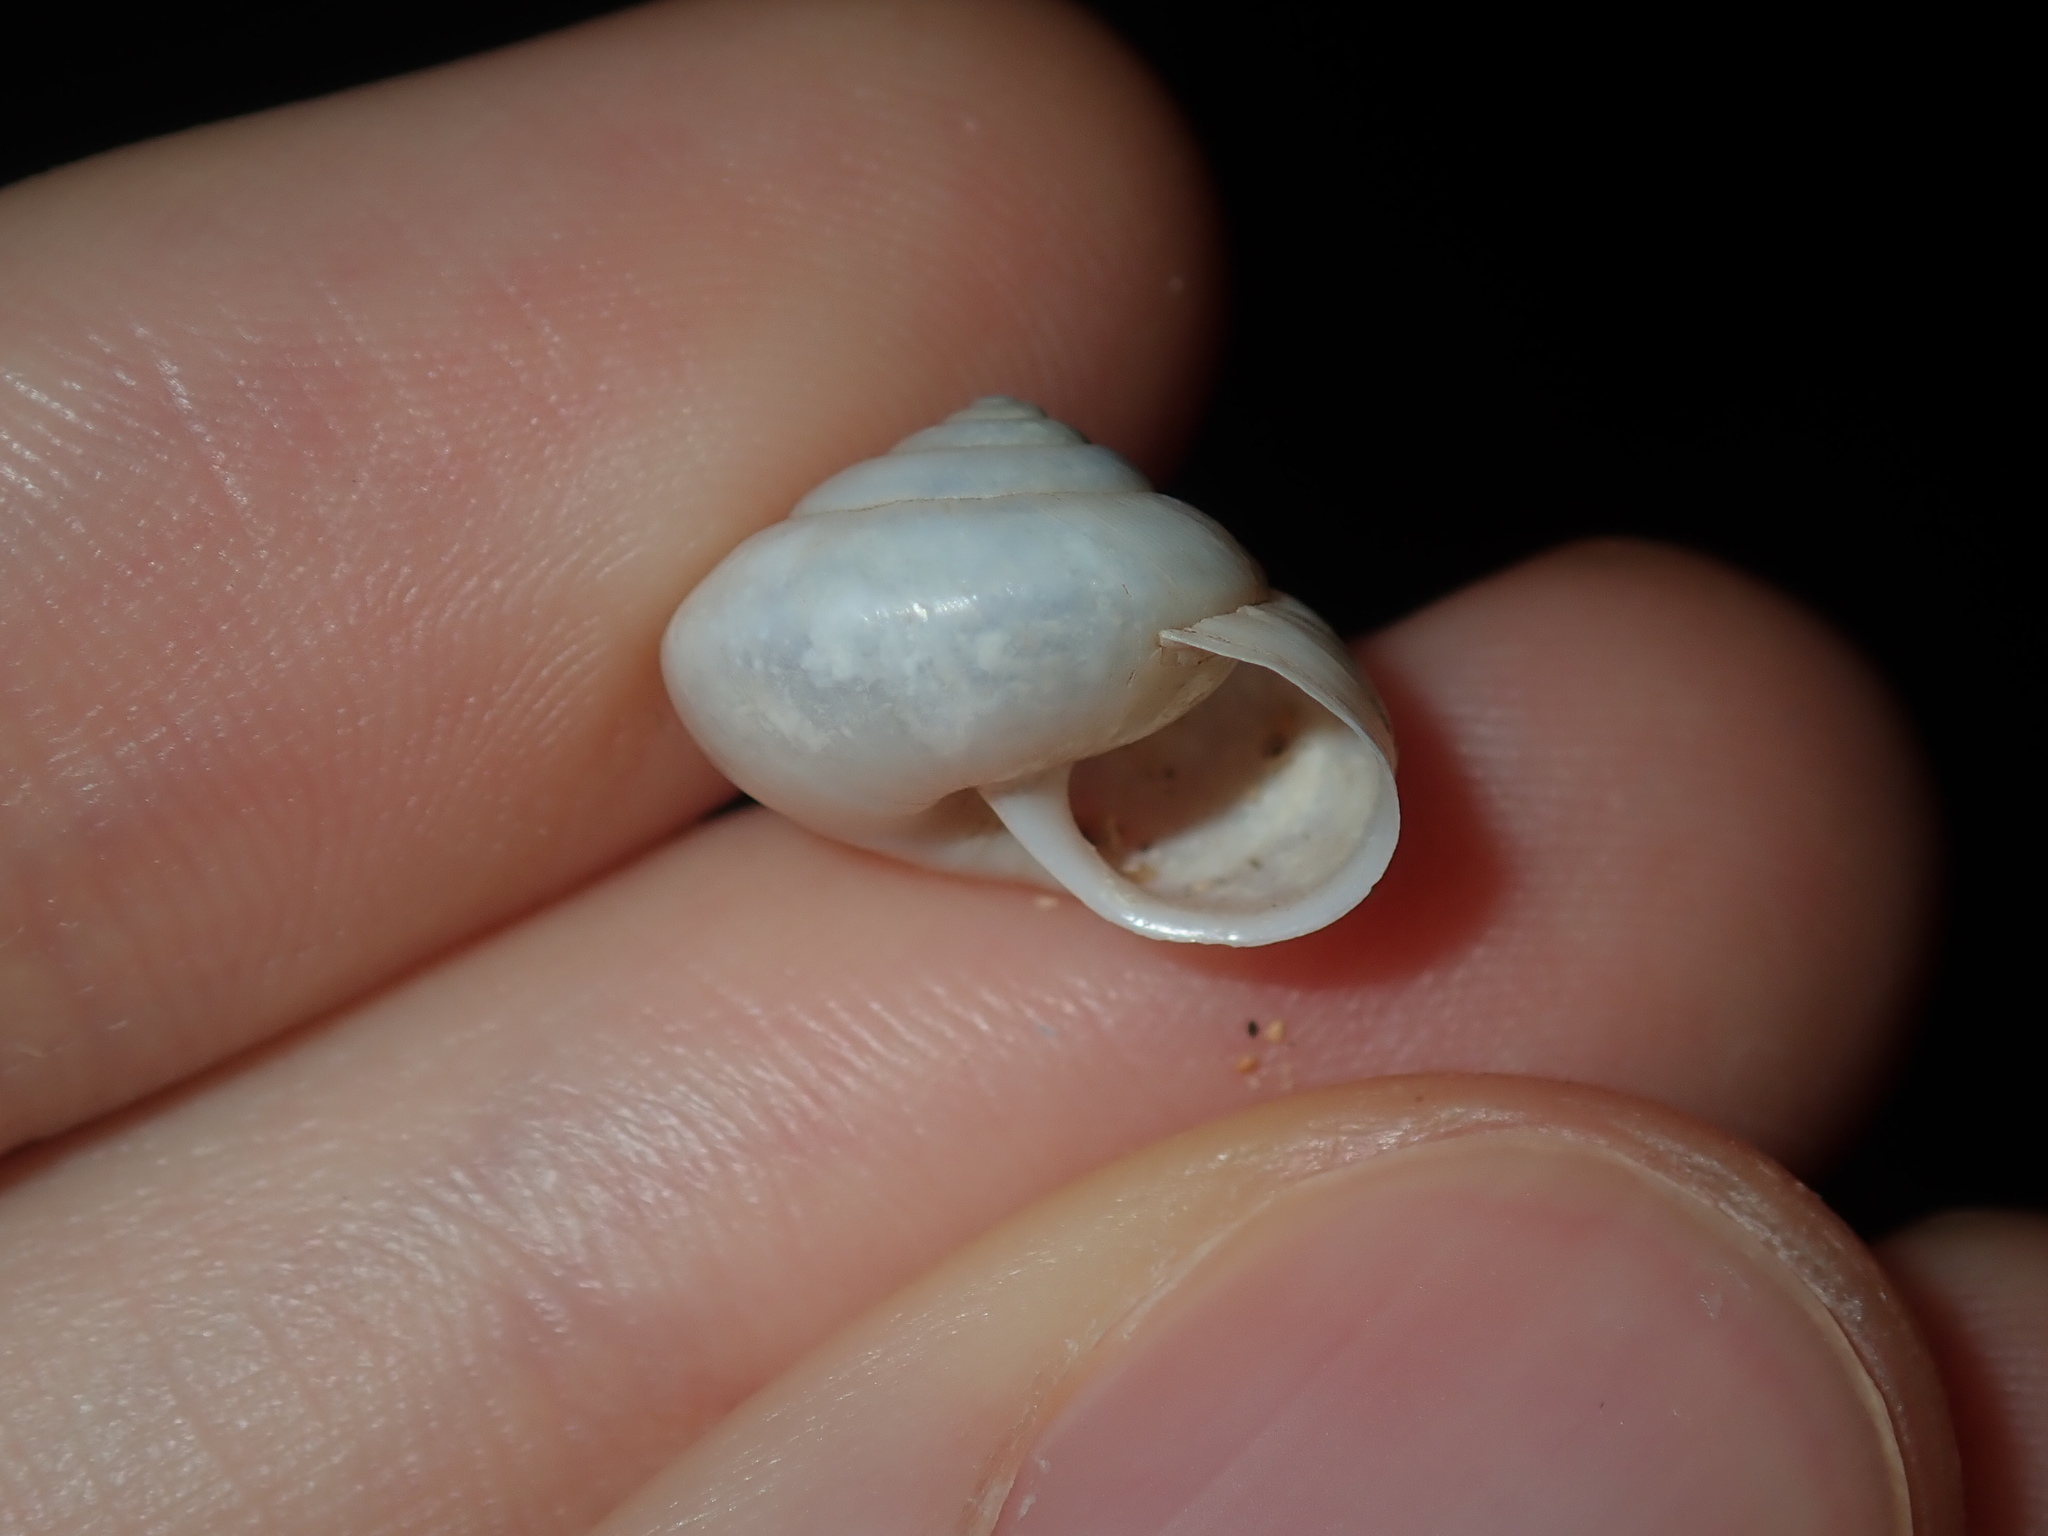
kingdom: Animalia
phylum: Mollusca
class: Gastropoda
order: Stylommatophora
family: Camaenidae
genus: Bradybaena
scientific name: Bradybaena similaris
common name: Asian trampsnail
